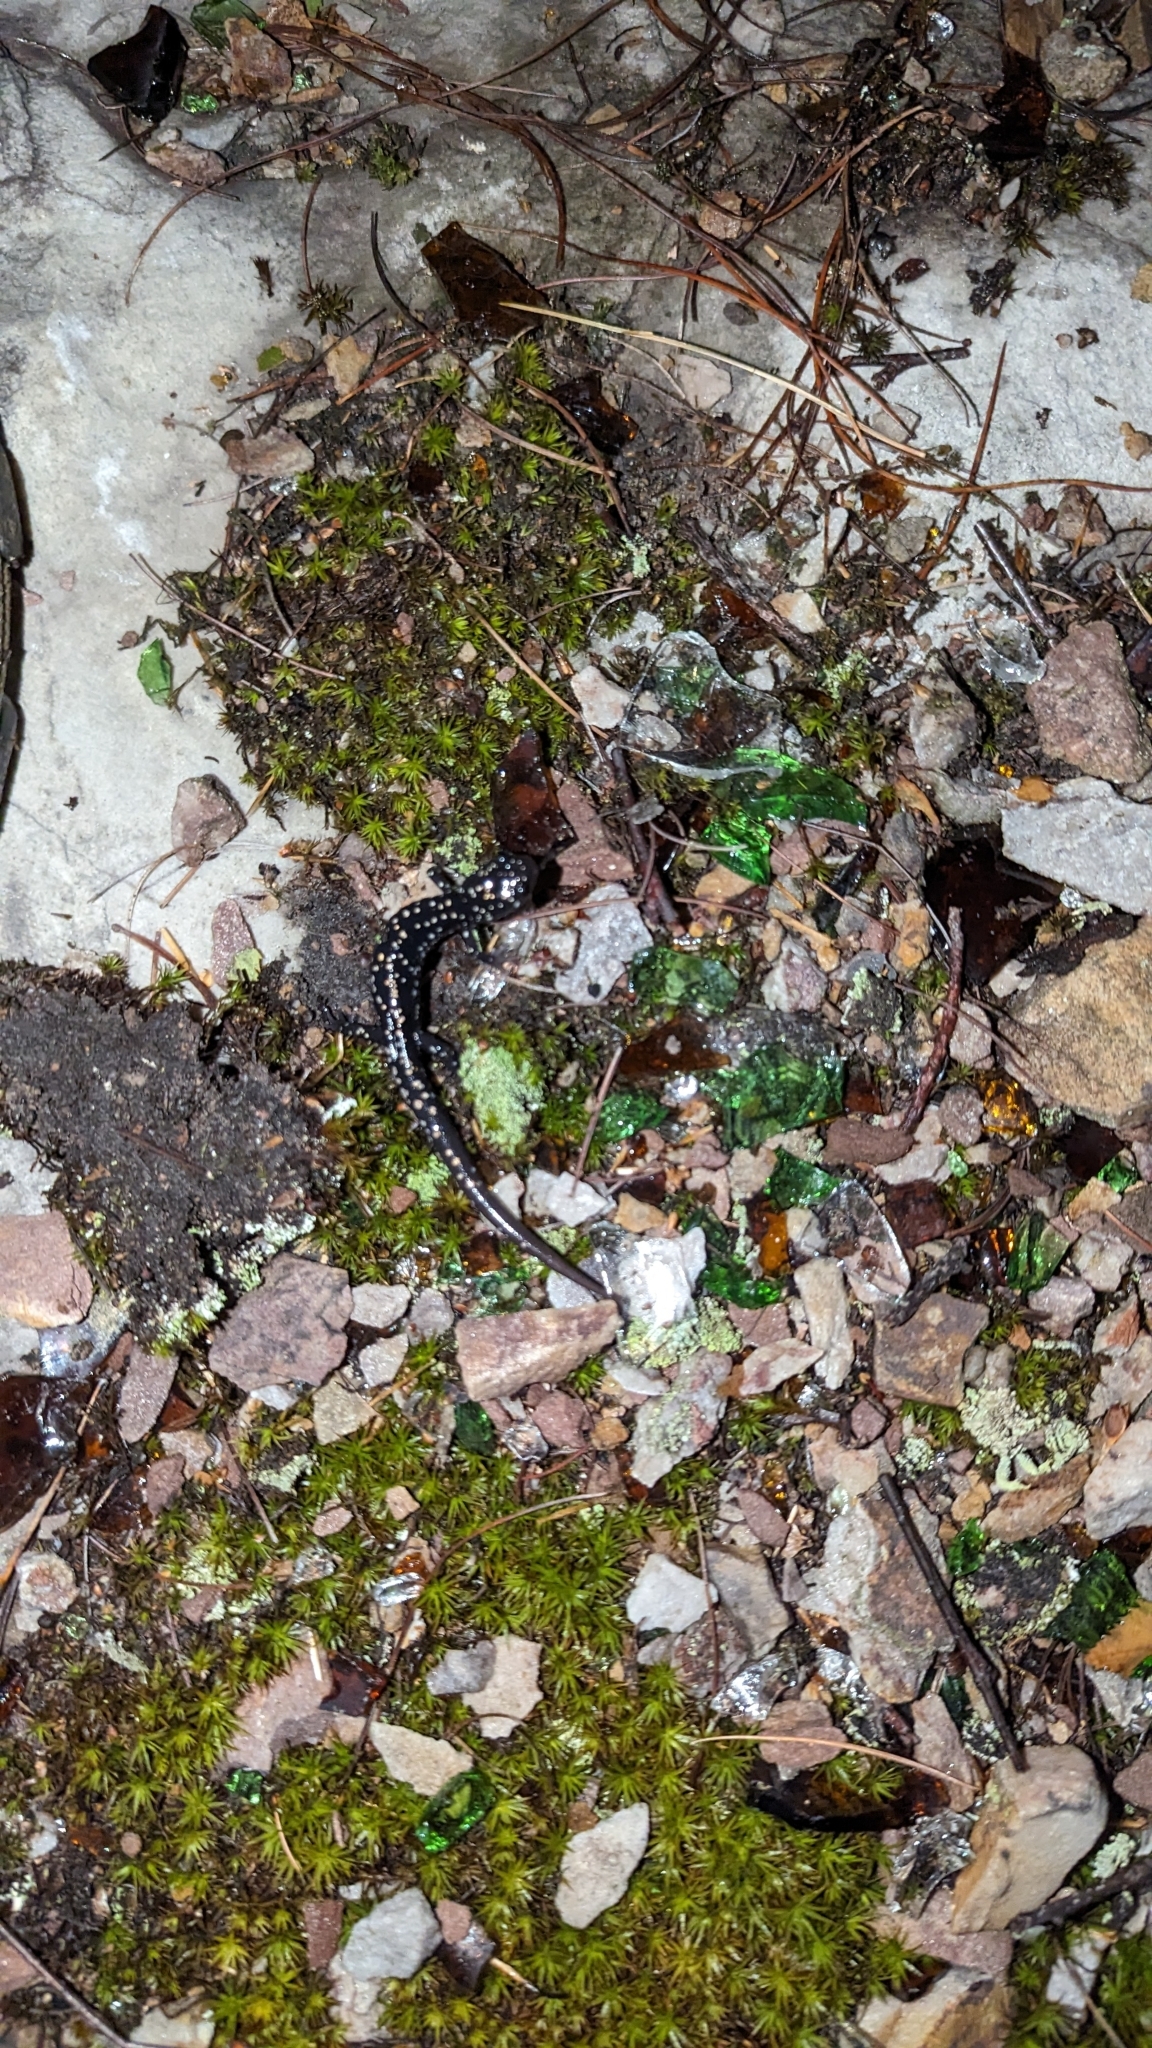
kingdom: Animalia
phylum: Chordata
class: Amphibia
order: Caudata
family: Plethodontidae
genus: Plethodon
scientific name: Plethodon glutinosus
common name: Northern slimy salamander
